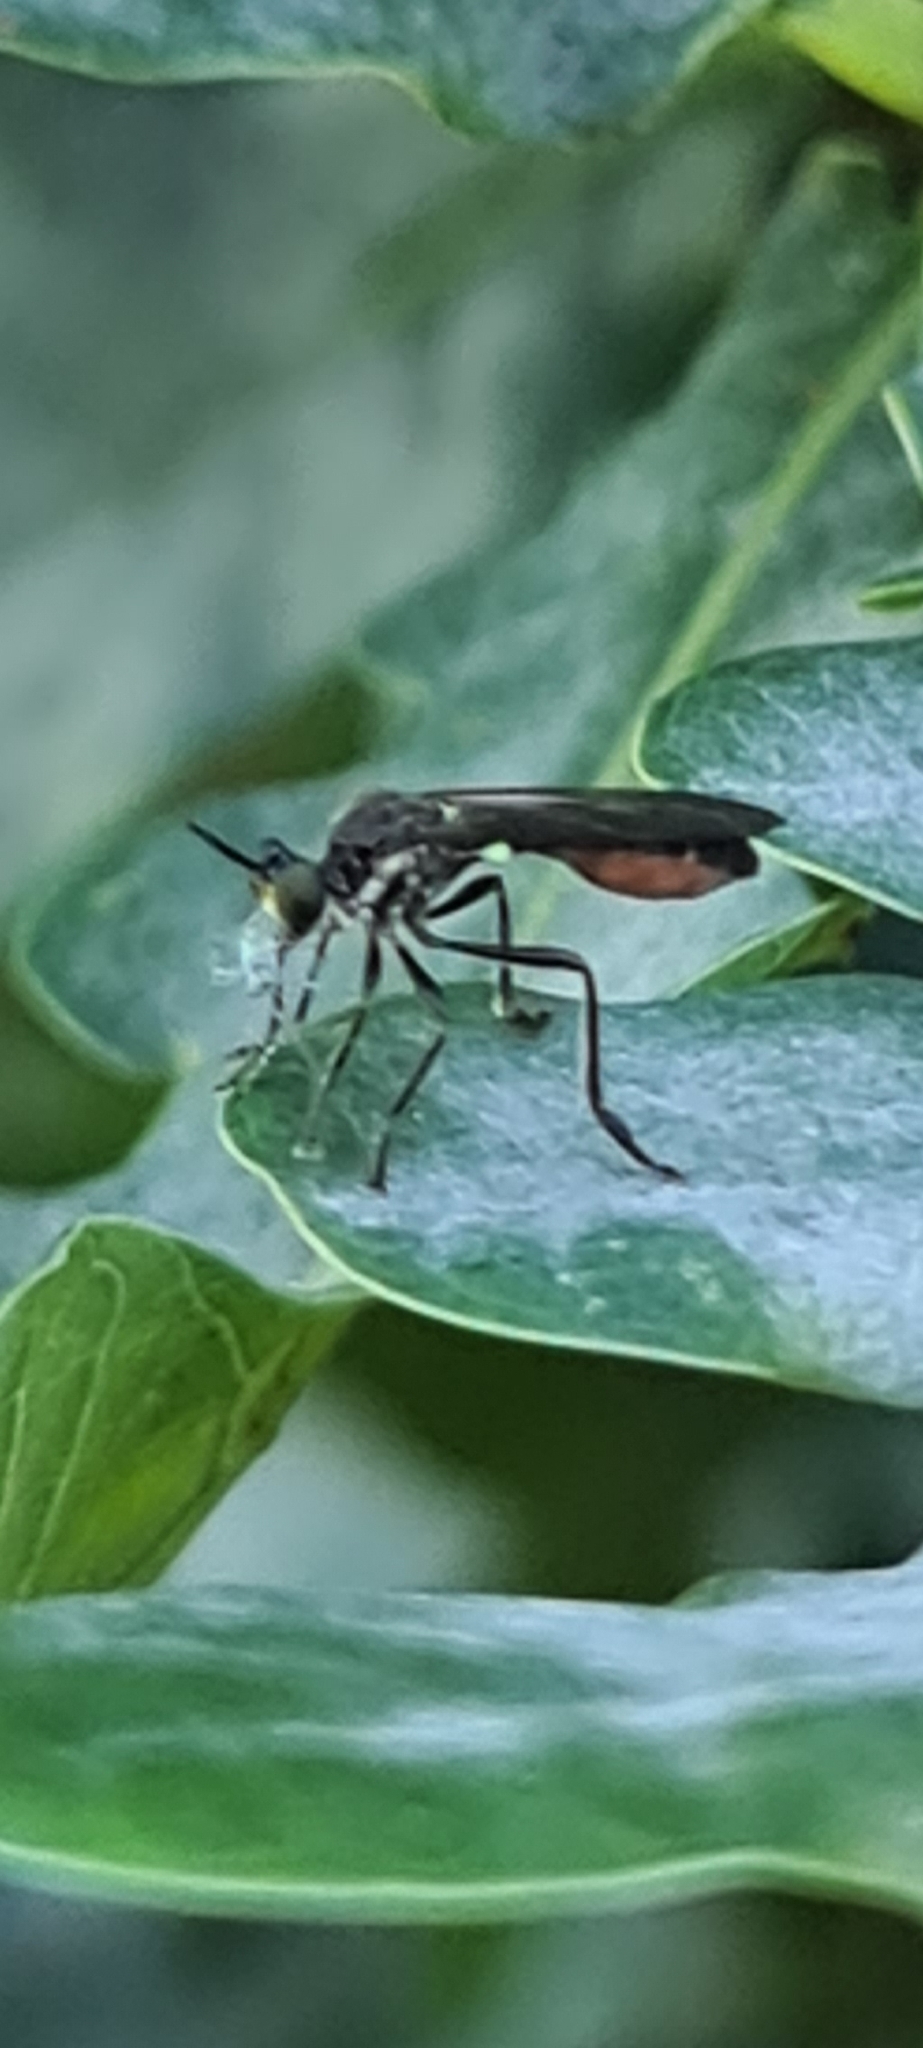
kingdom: Animalia
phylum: Arthropoda
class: Insecta
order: Diptera
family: Asilidae
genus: Dioctria
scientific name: Dioctria hyalipennis
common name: Stripe-legged robberfly
